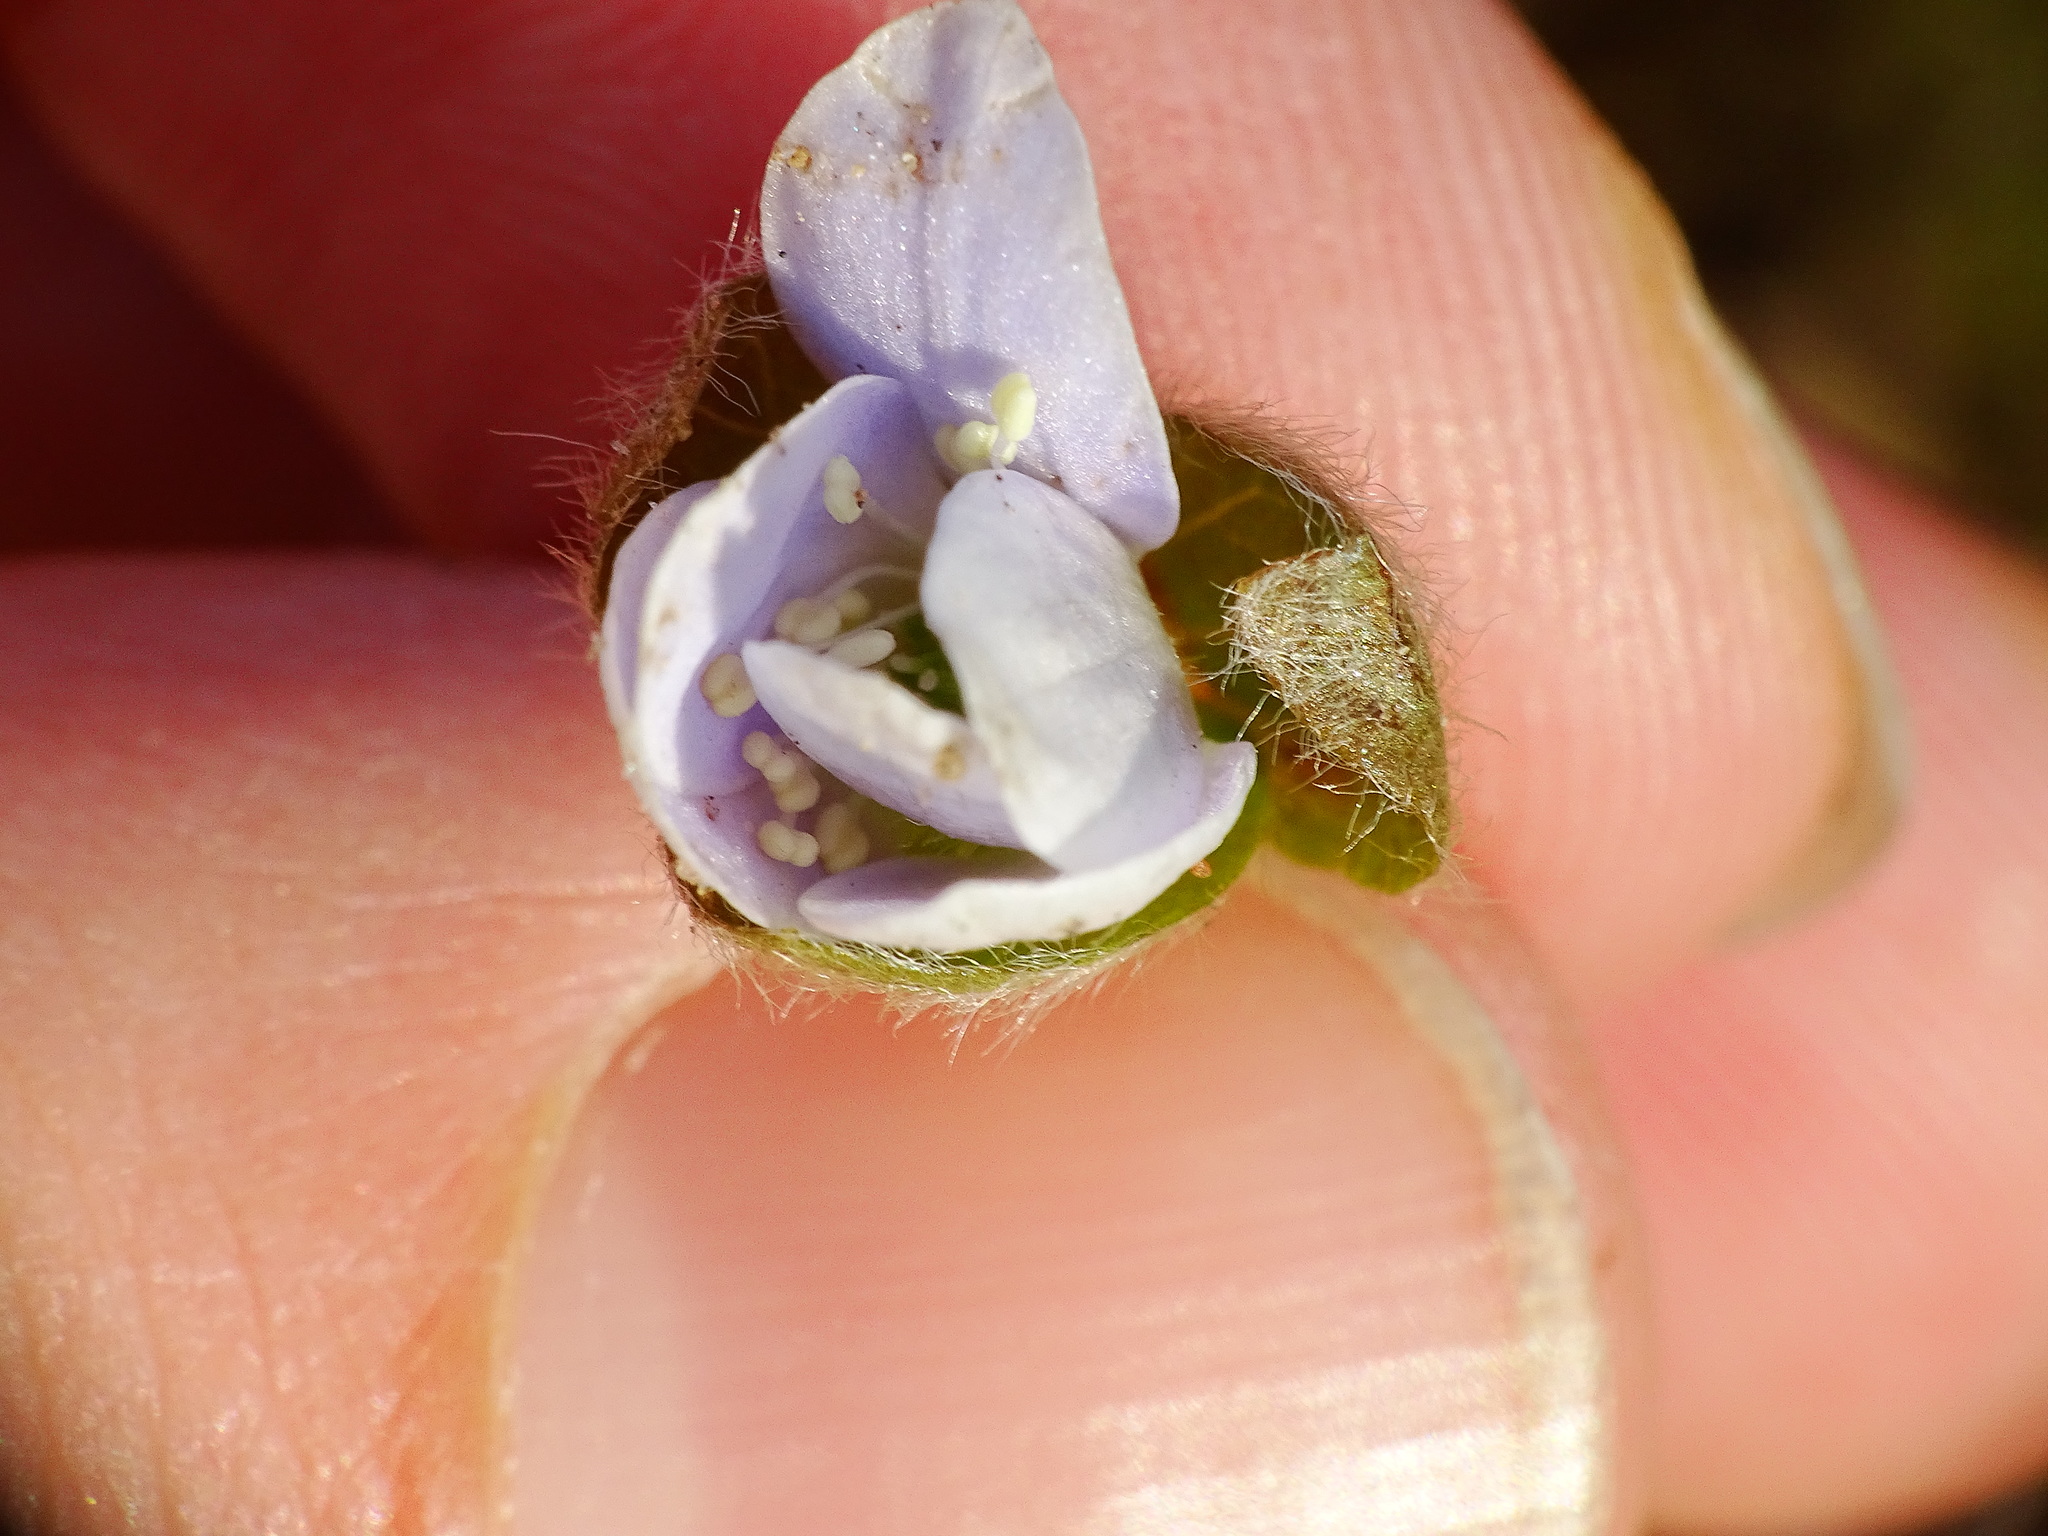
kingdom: Plantae
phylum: Tracheophyta
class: Magnoliopsida
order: Ranunculales
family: Ranunculaceae
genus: Hepatica
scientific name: Hepatica americana
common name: American hepatica
